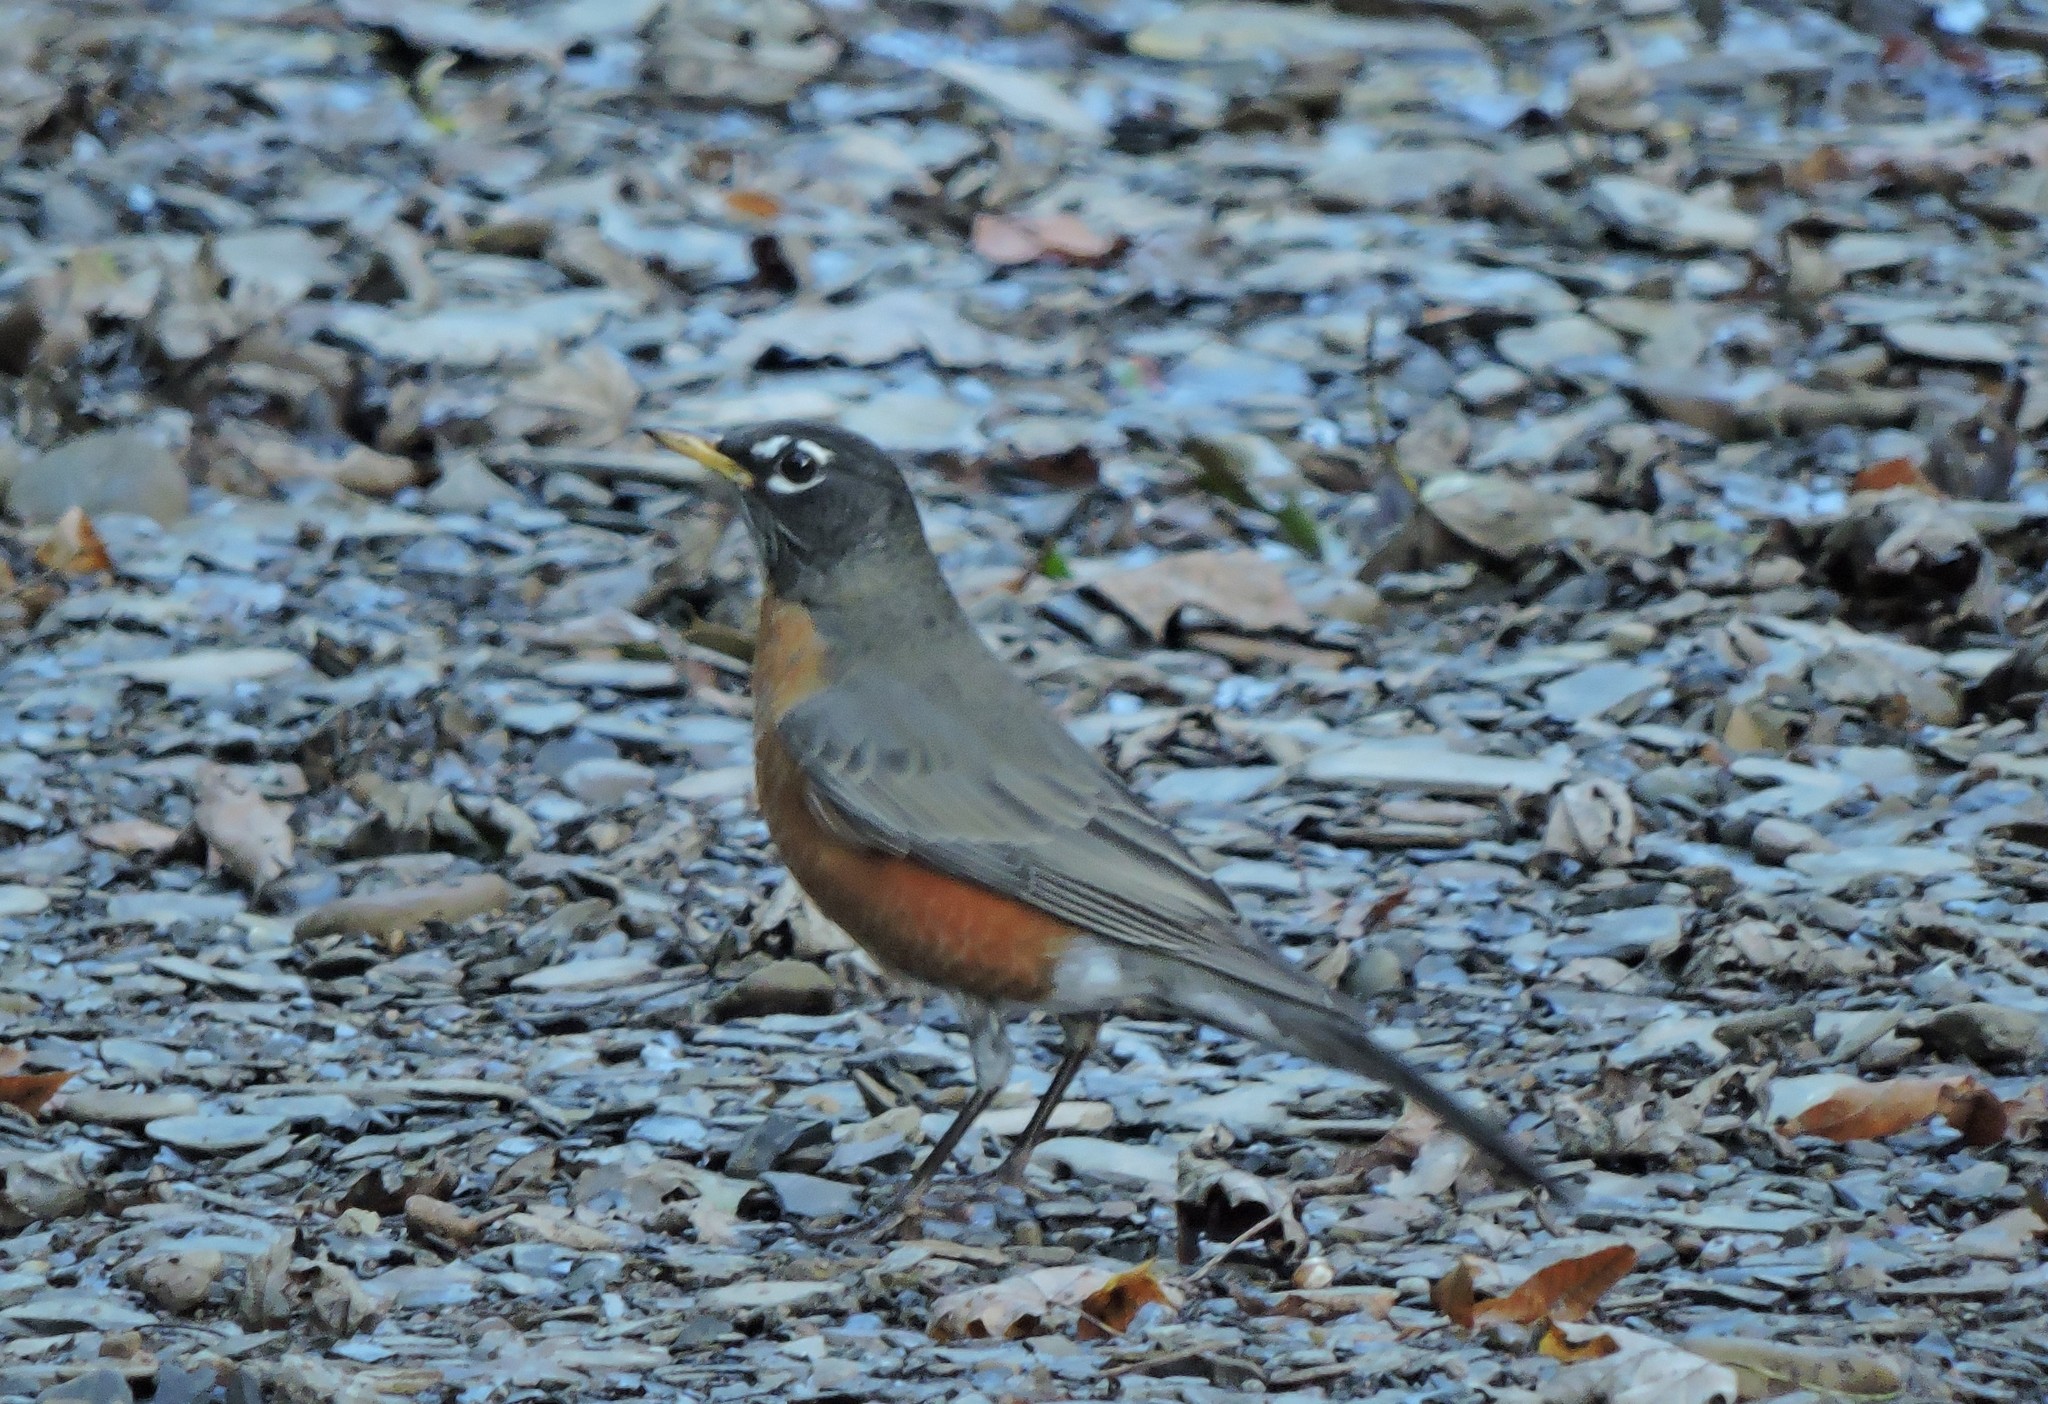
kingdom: Animalia
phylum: Chordata
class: Aves
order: Passeriformes
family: Turdidae
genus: Turdus
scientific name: Turdus migratorius
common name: American robin
